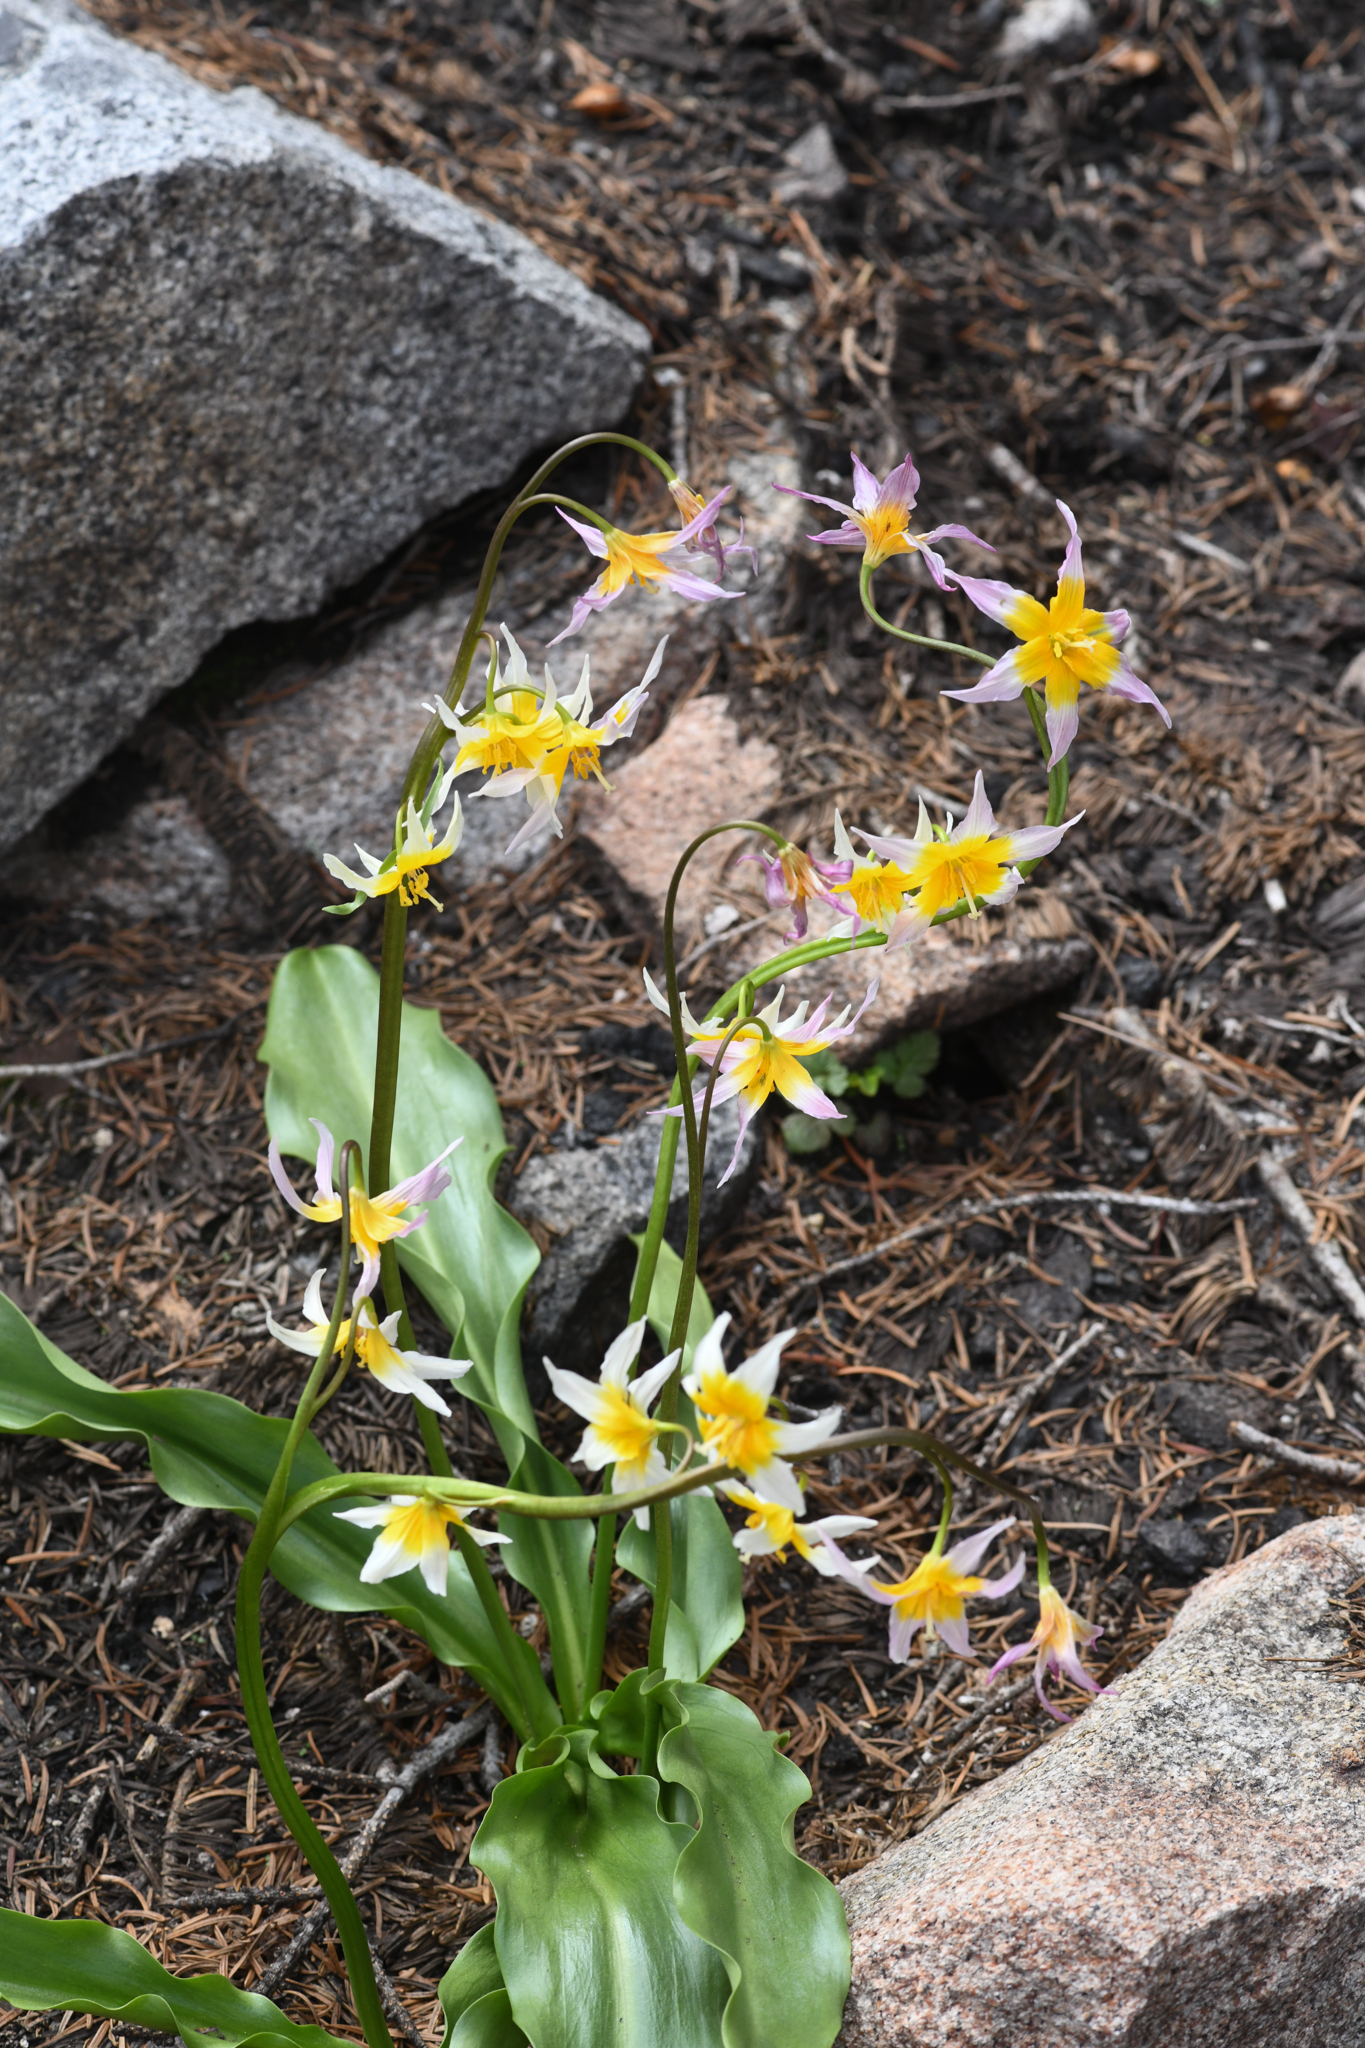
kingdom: Plantae
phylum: Tracheophyta
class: Liliopsida
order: Liliales
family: Liliaceae
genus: Erythronium
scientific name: Erythronium pusaterii
